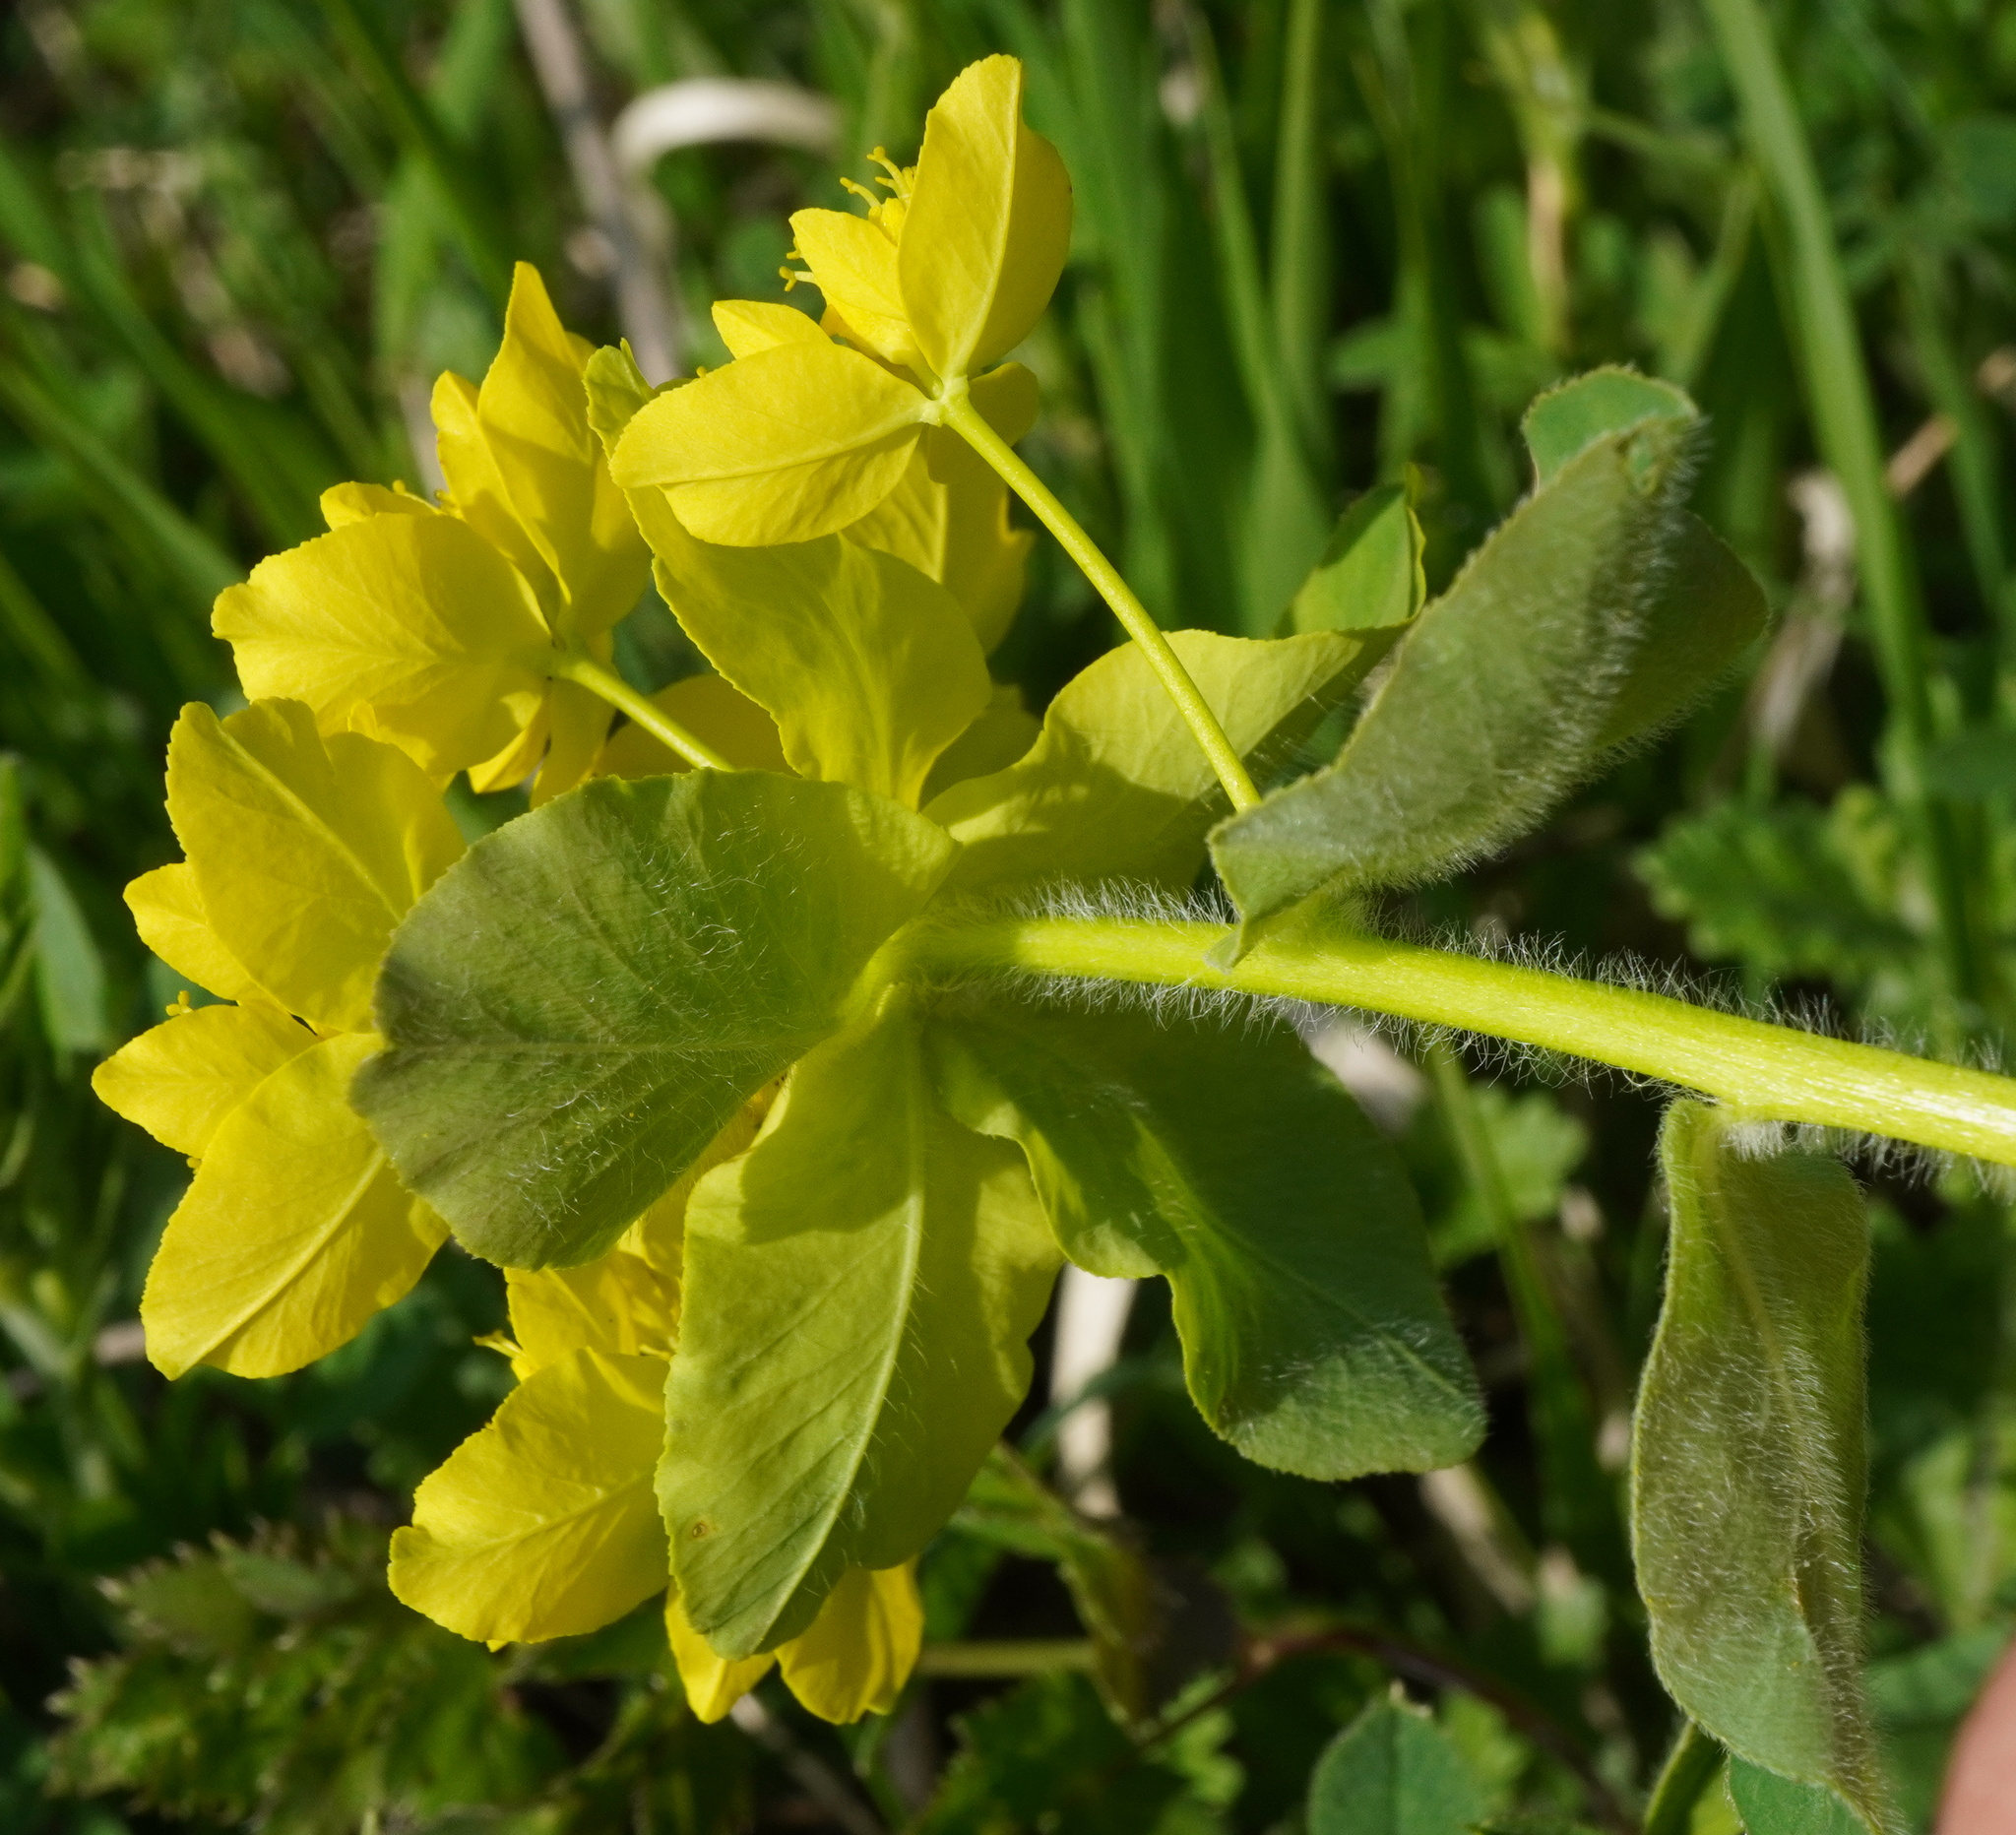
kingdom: Plantae
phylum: Tracheophyta
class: Magnoliopsida
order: Malpighiales
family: Euphorbiaceae
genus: Euphorbia
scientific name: Euphorbia epithymoides
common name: Cushion spurge
